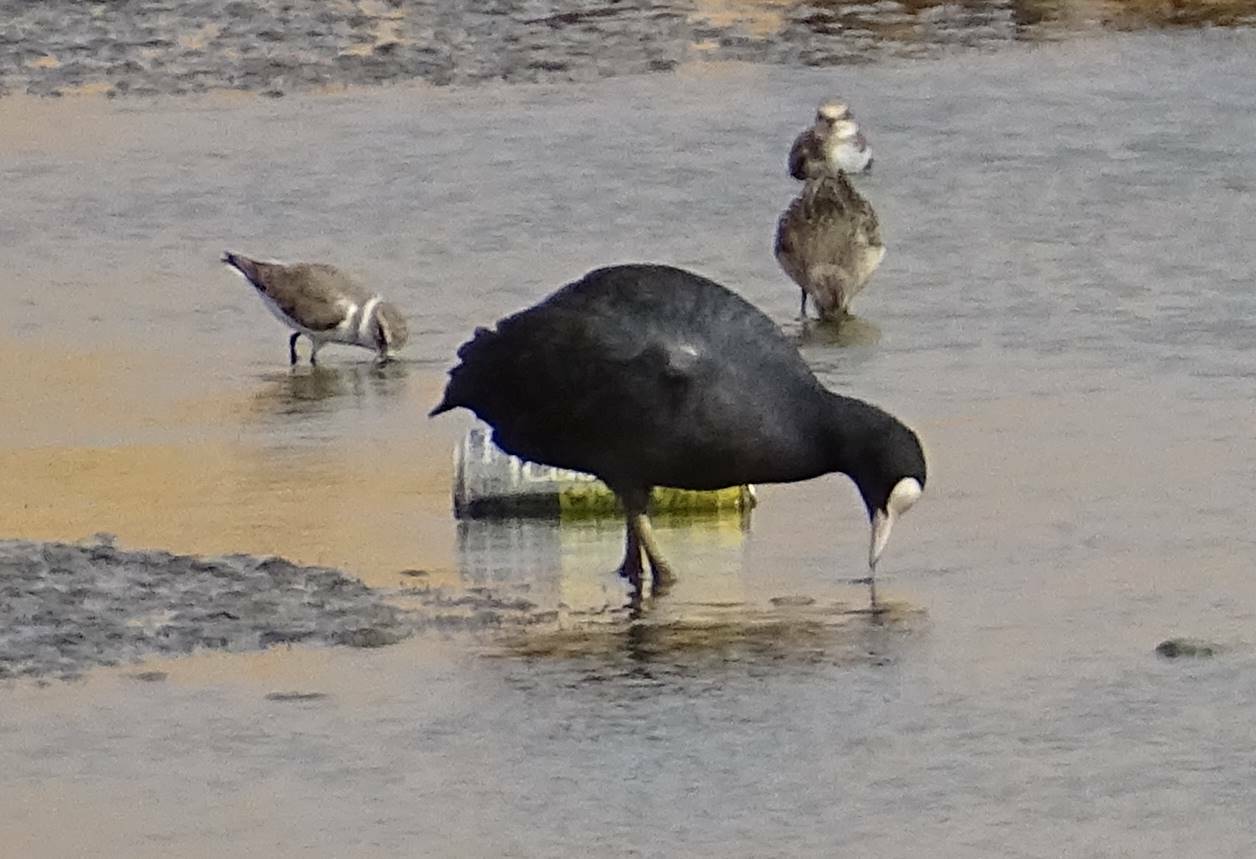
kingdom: Animalia
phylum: Chordata
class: Aves
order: Gruiformes
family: Rallidae
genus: Fulica
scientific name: Fulica atra
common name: Eurasian coot
